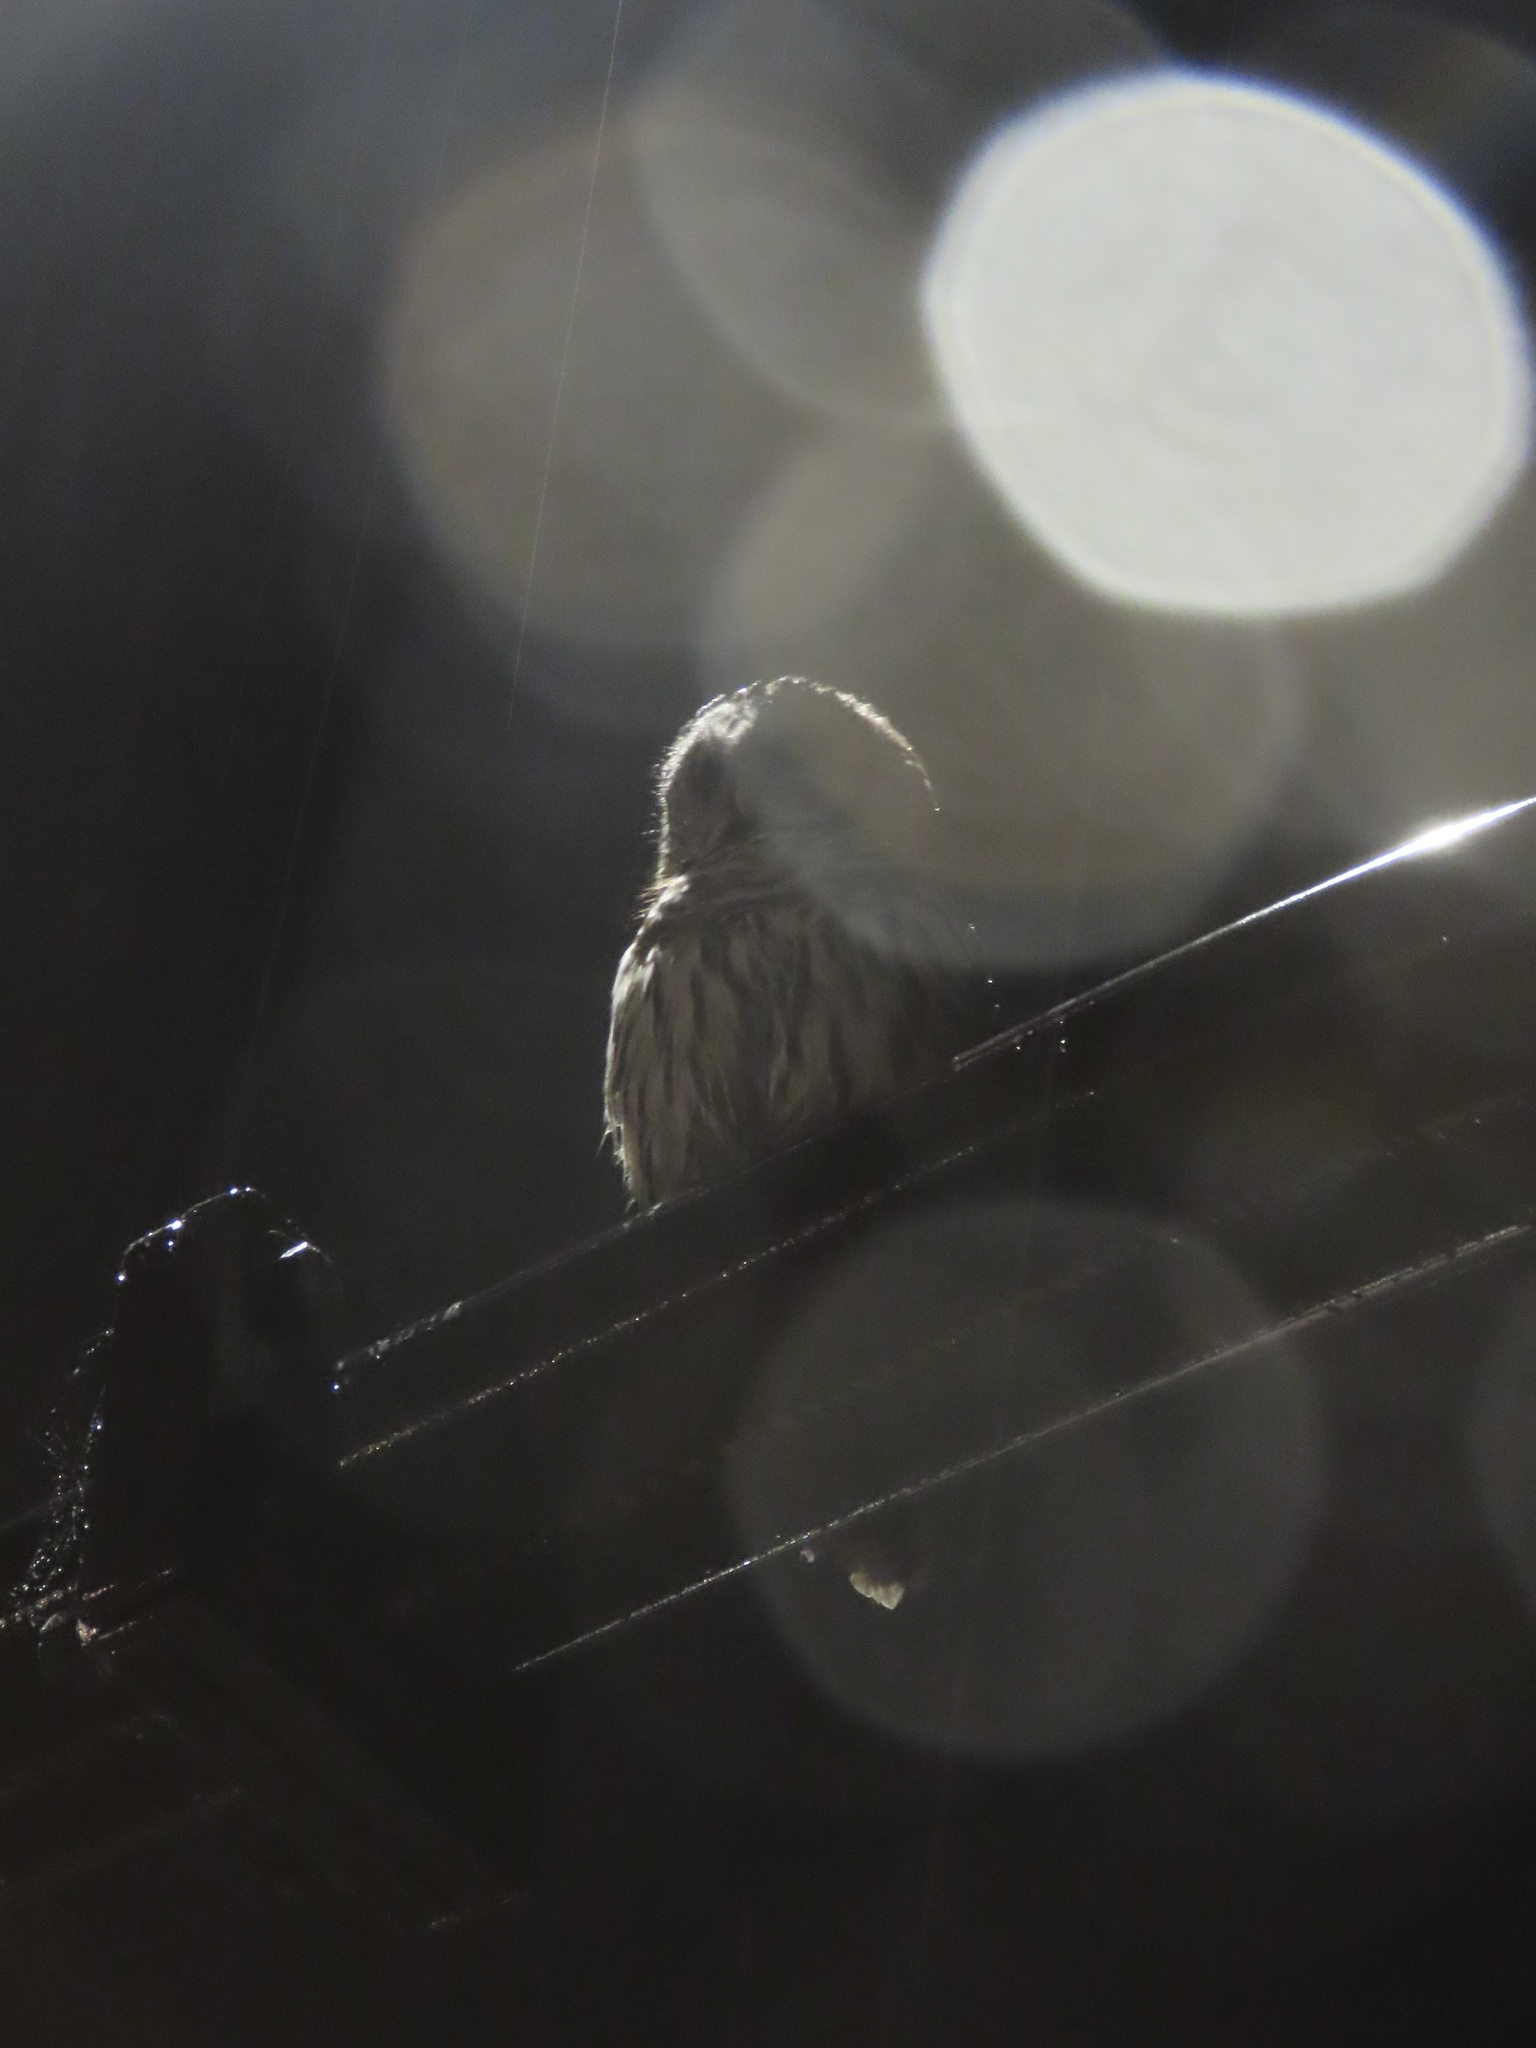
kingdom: Animalia
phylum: Chordata
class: Aves
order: Strigiformes
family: Strigidae
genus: Strix
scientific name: Strix varia
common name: Barred owl
